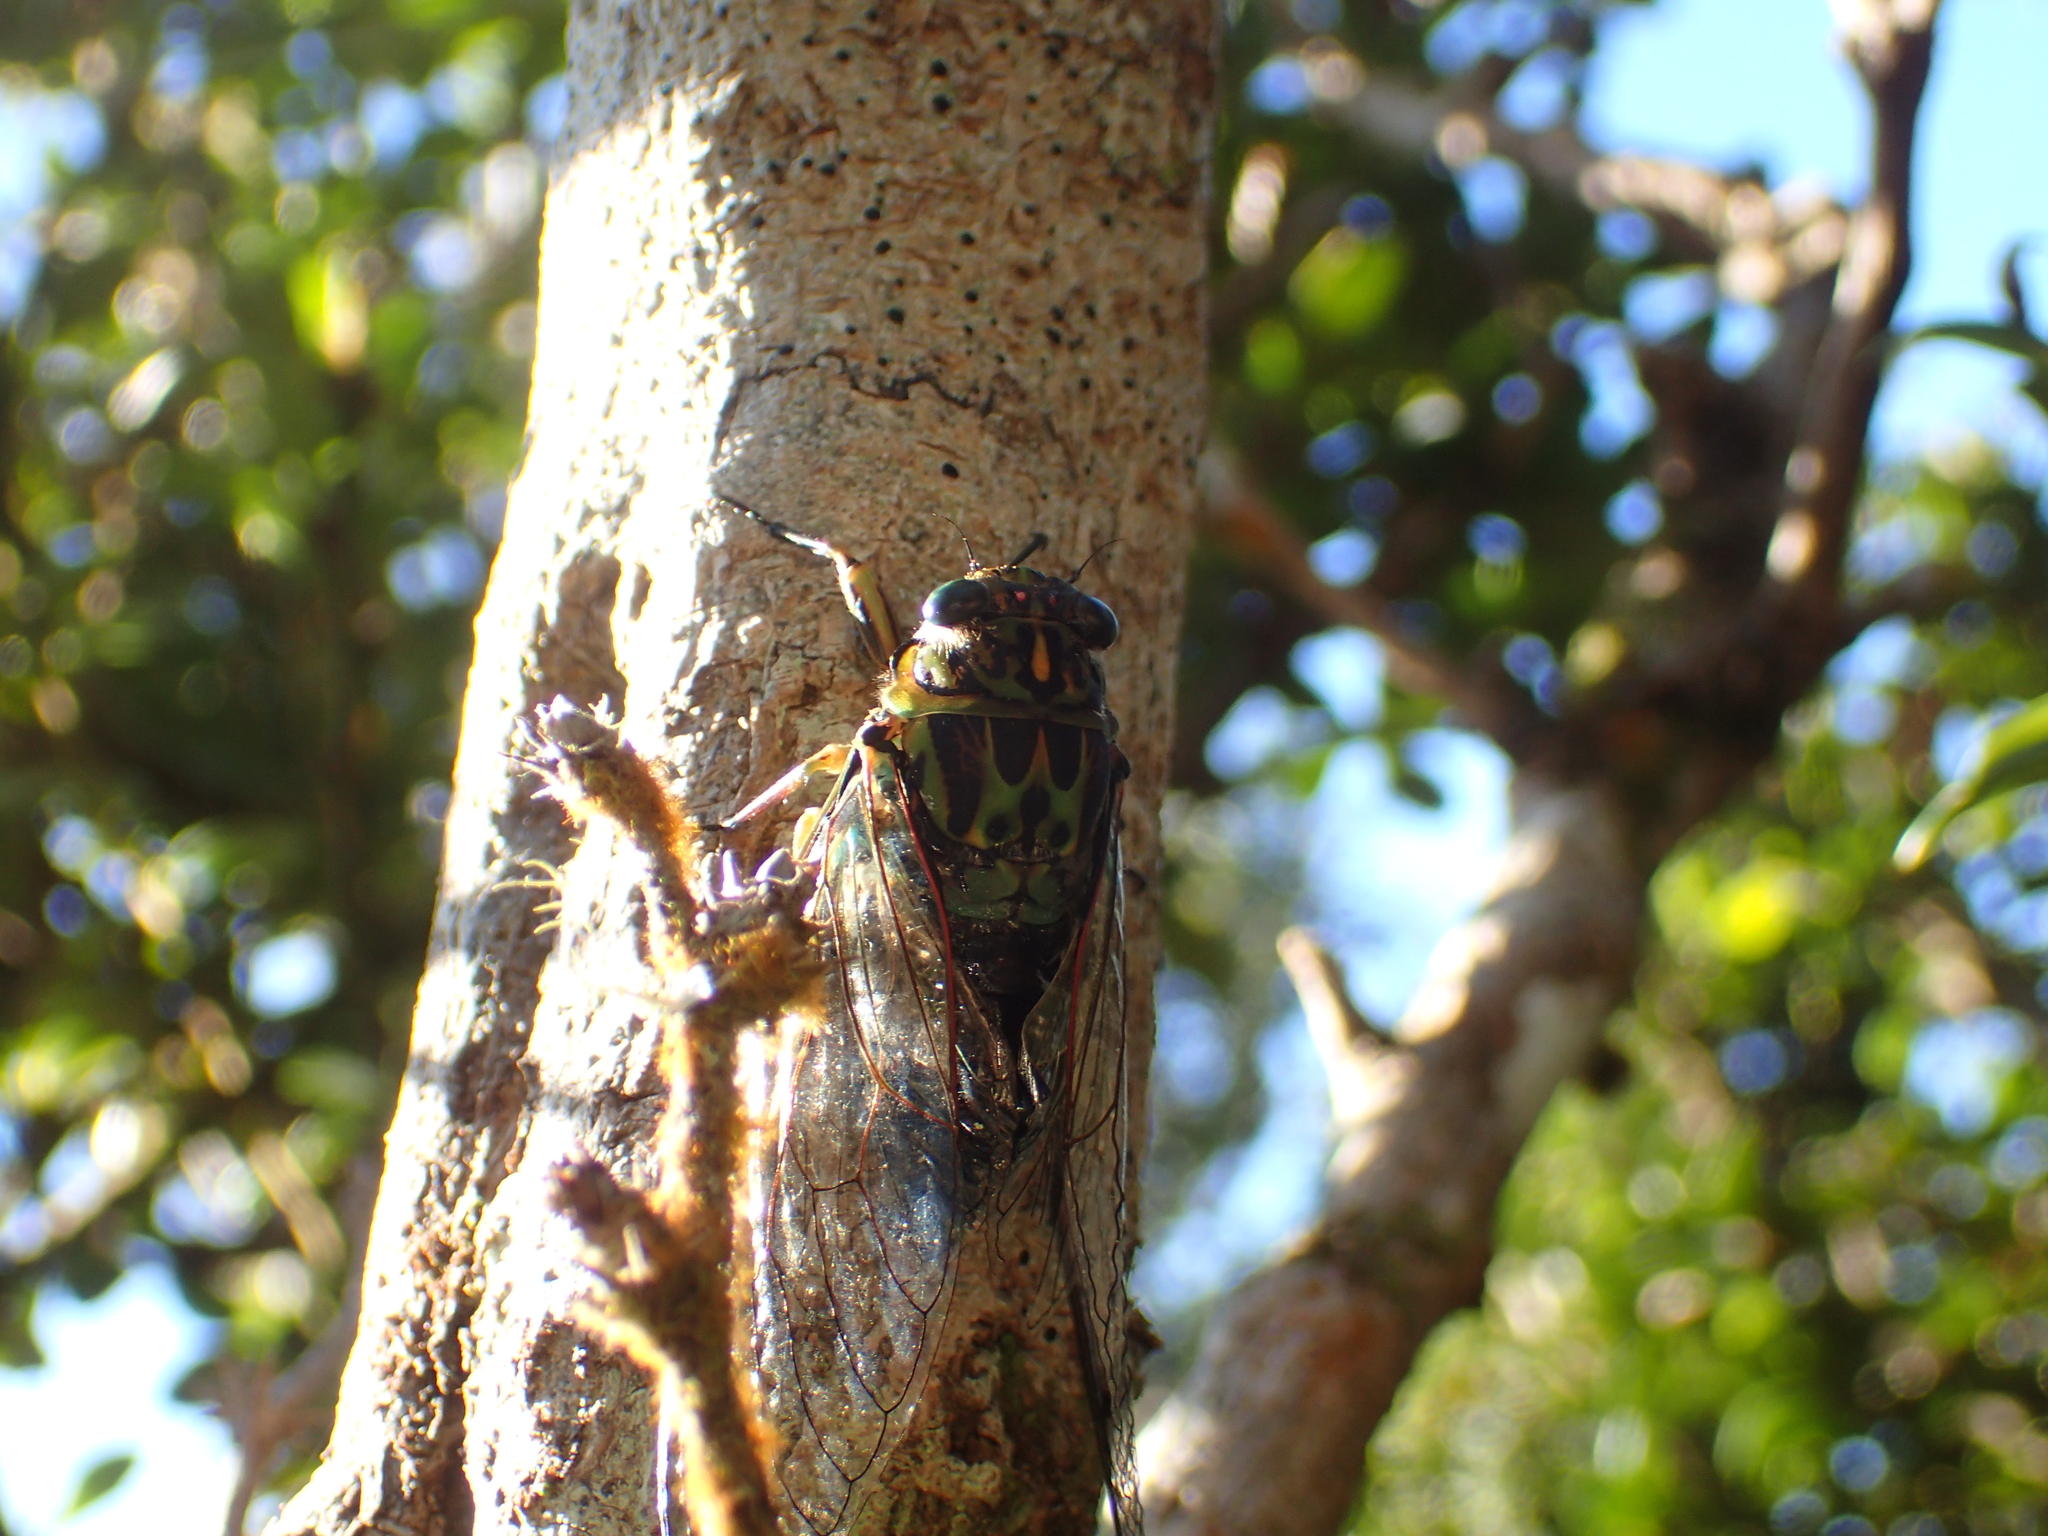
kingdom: Animalia
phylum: Arthropoda
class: Insecta
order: Hemiptera
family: Cicadidae
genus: Amphipsalta
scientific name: Amphipsalta zelandica
